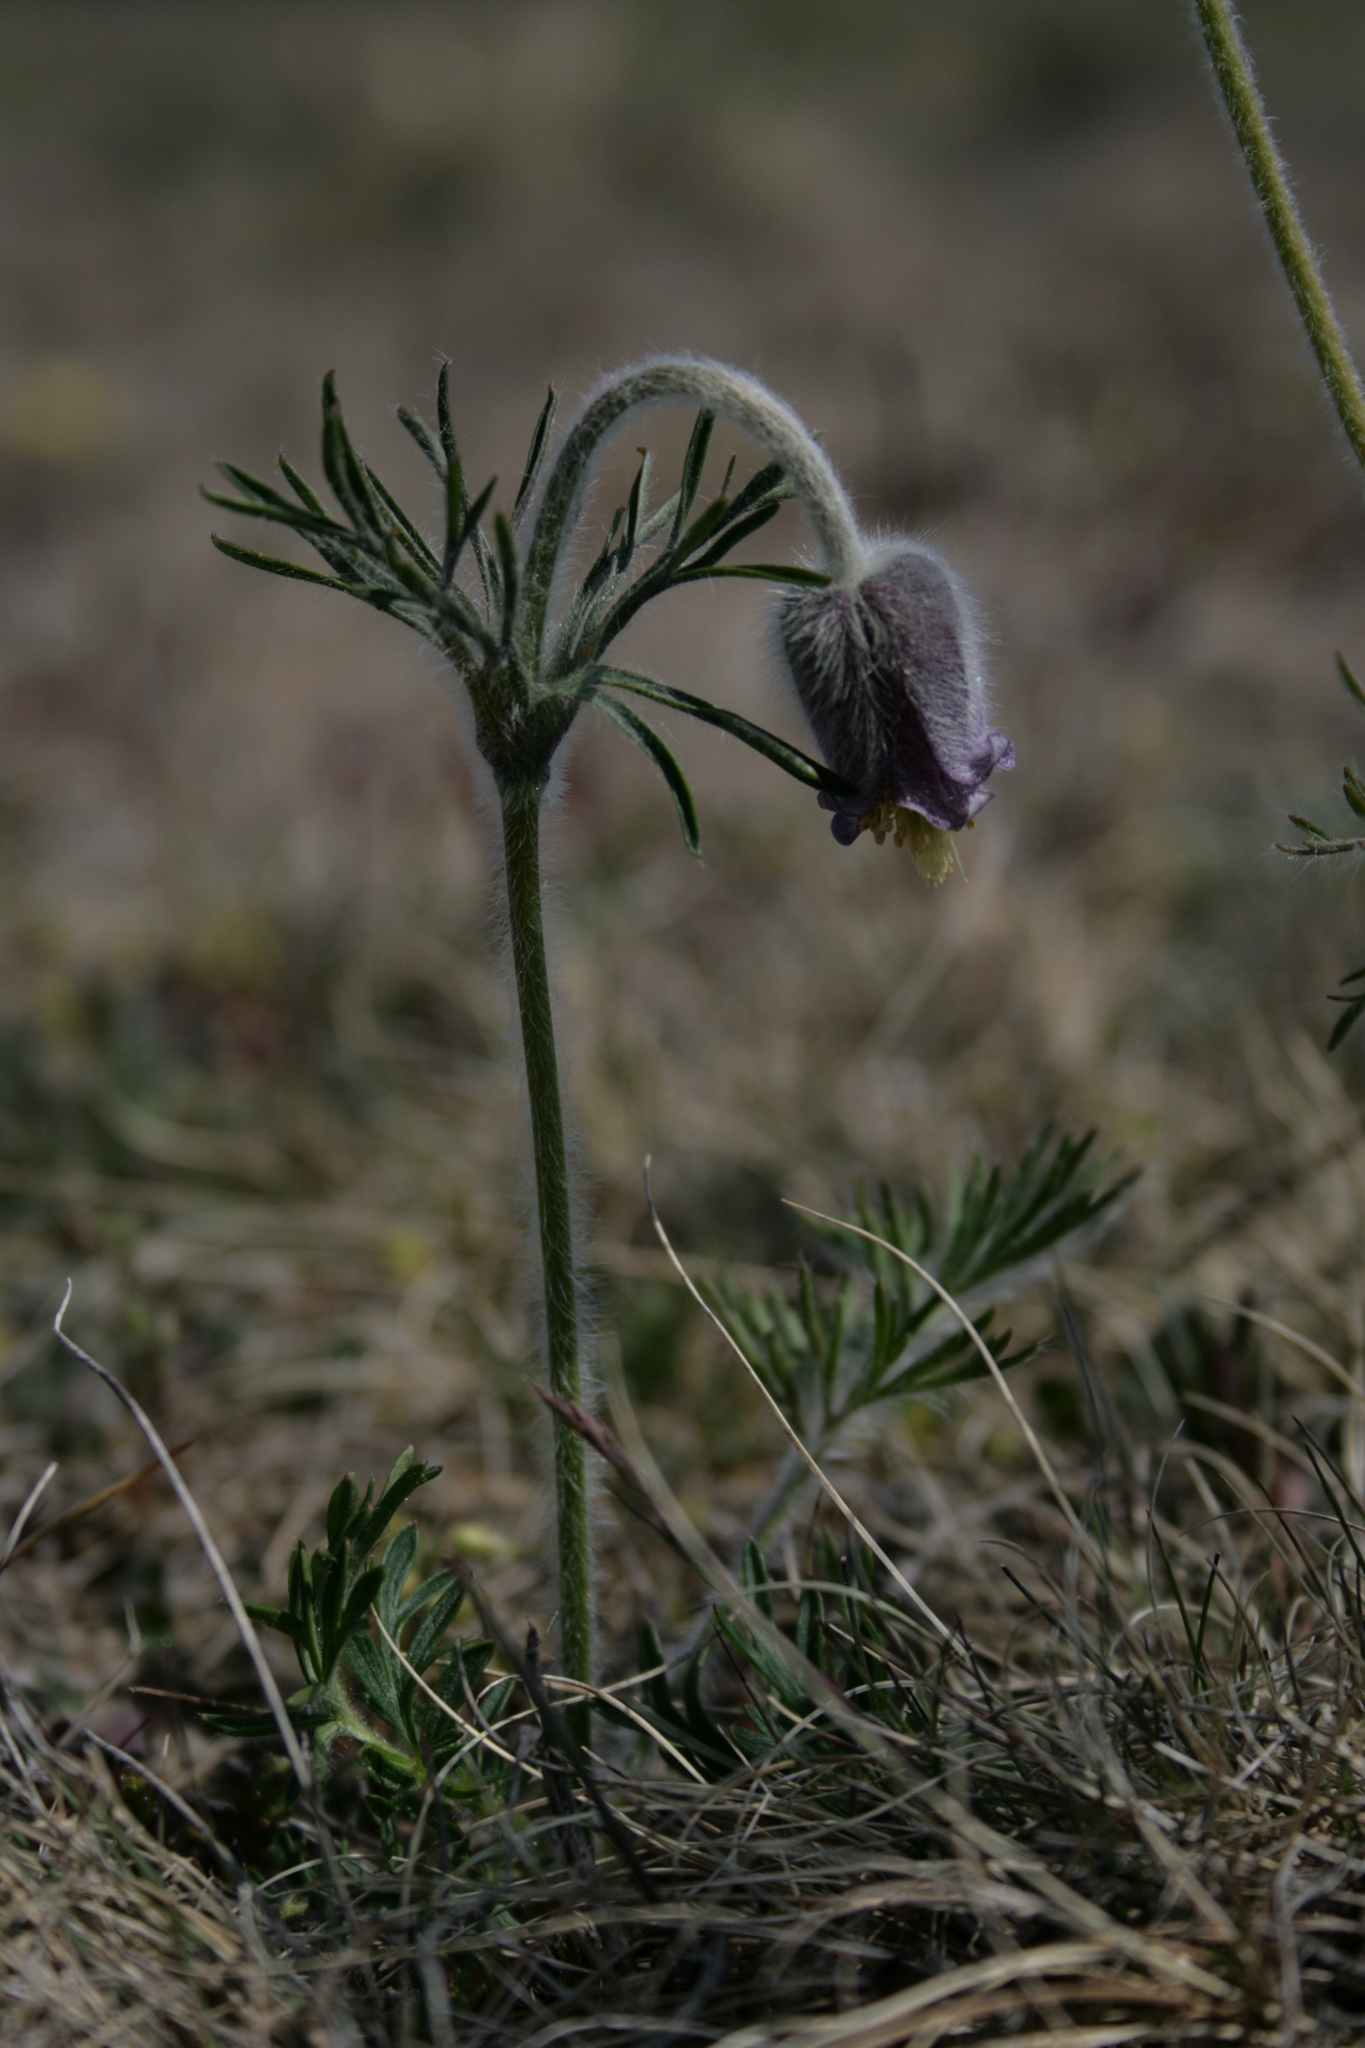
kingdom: Plantae
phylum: Tracheophyta
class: Magnoliopsida
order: Ranunculales
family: Ranunculaceae
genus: Pulsatilla
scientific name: Pulsatilla pratensis
